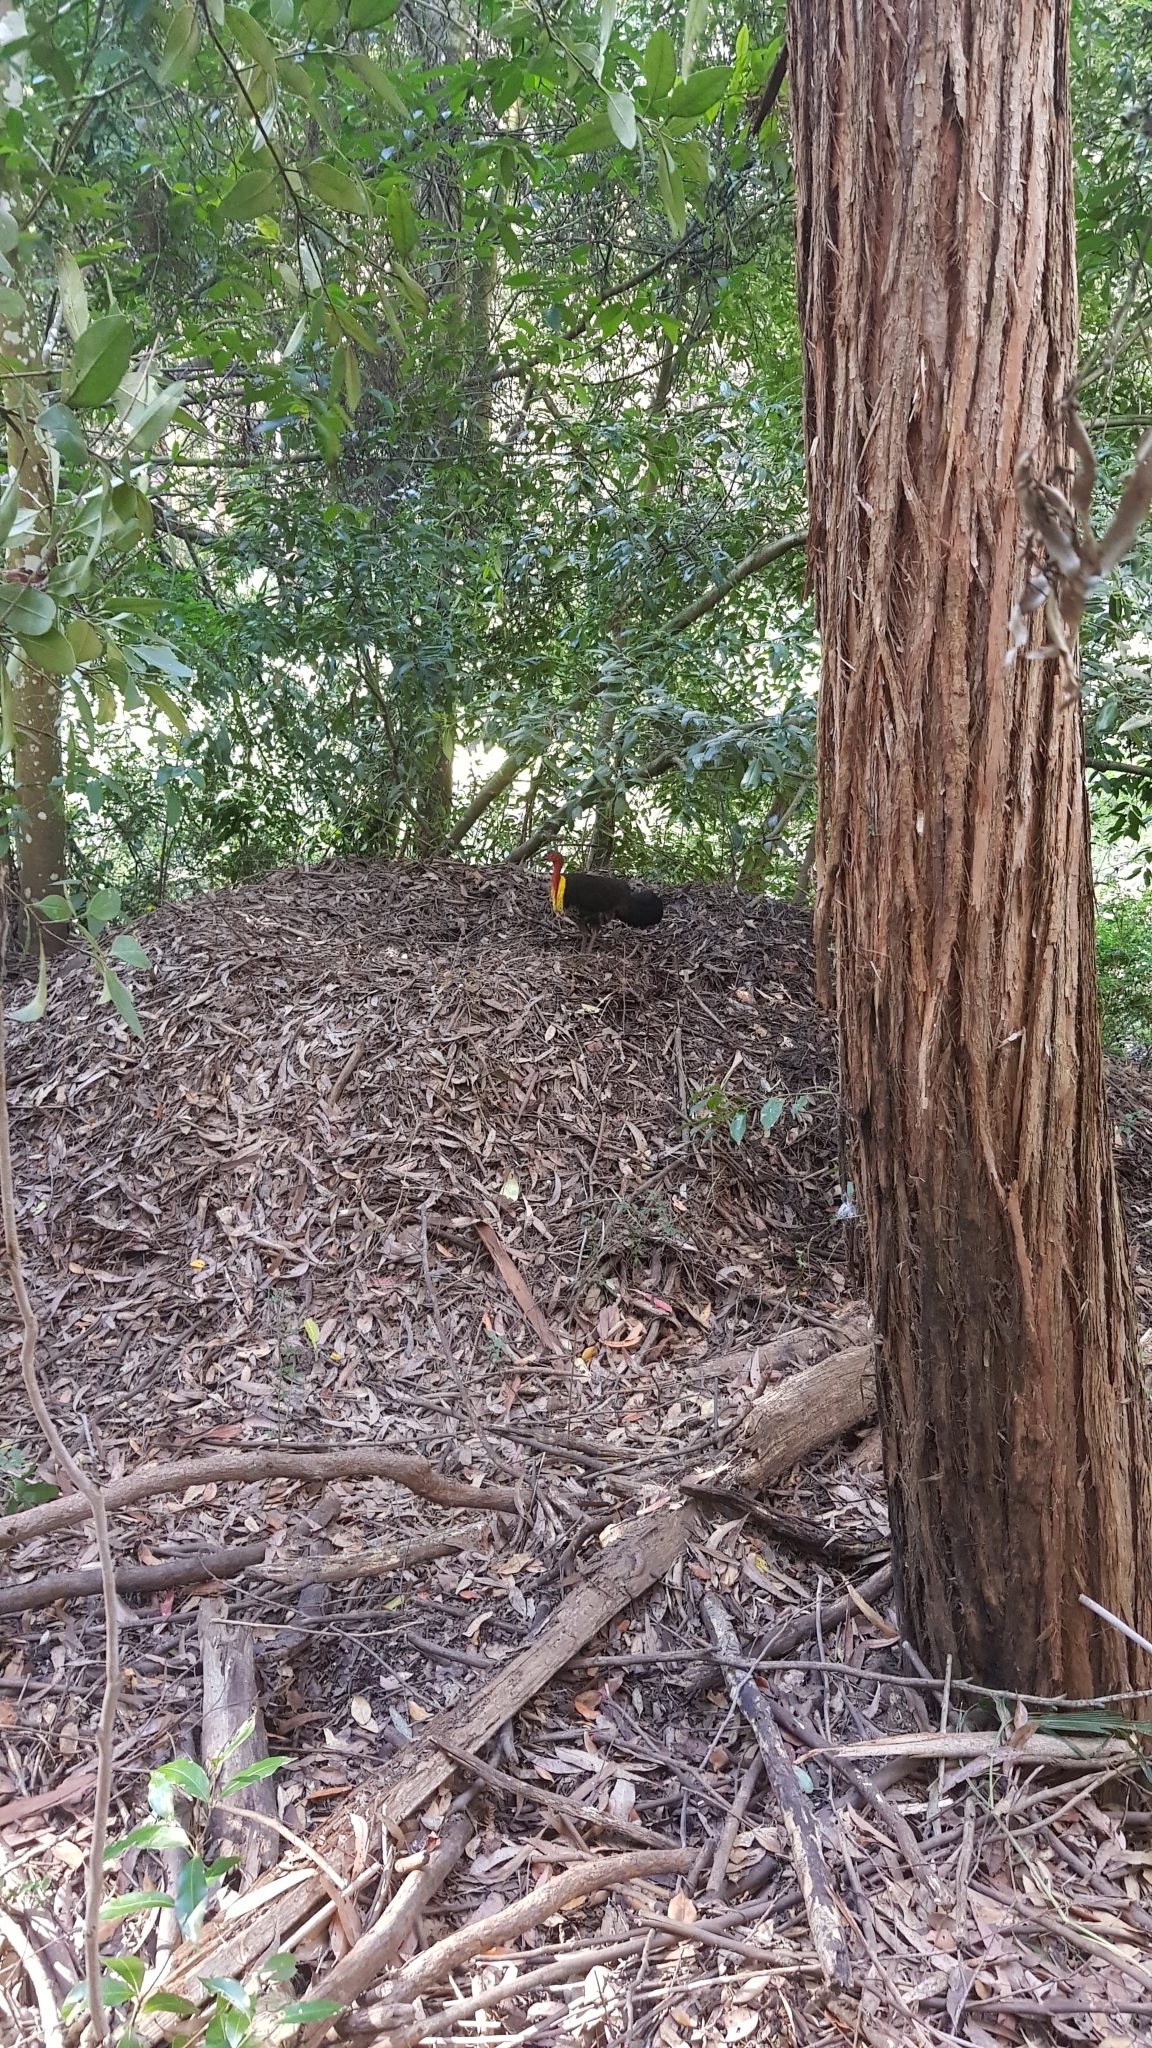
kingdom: Animalia
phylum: Chordata
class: Aves
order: Galliformes
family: Megapodiidae
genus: Alectura
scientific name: Alectura lathami
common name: Australian brushturkey
